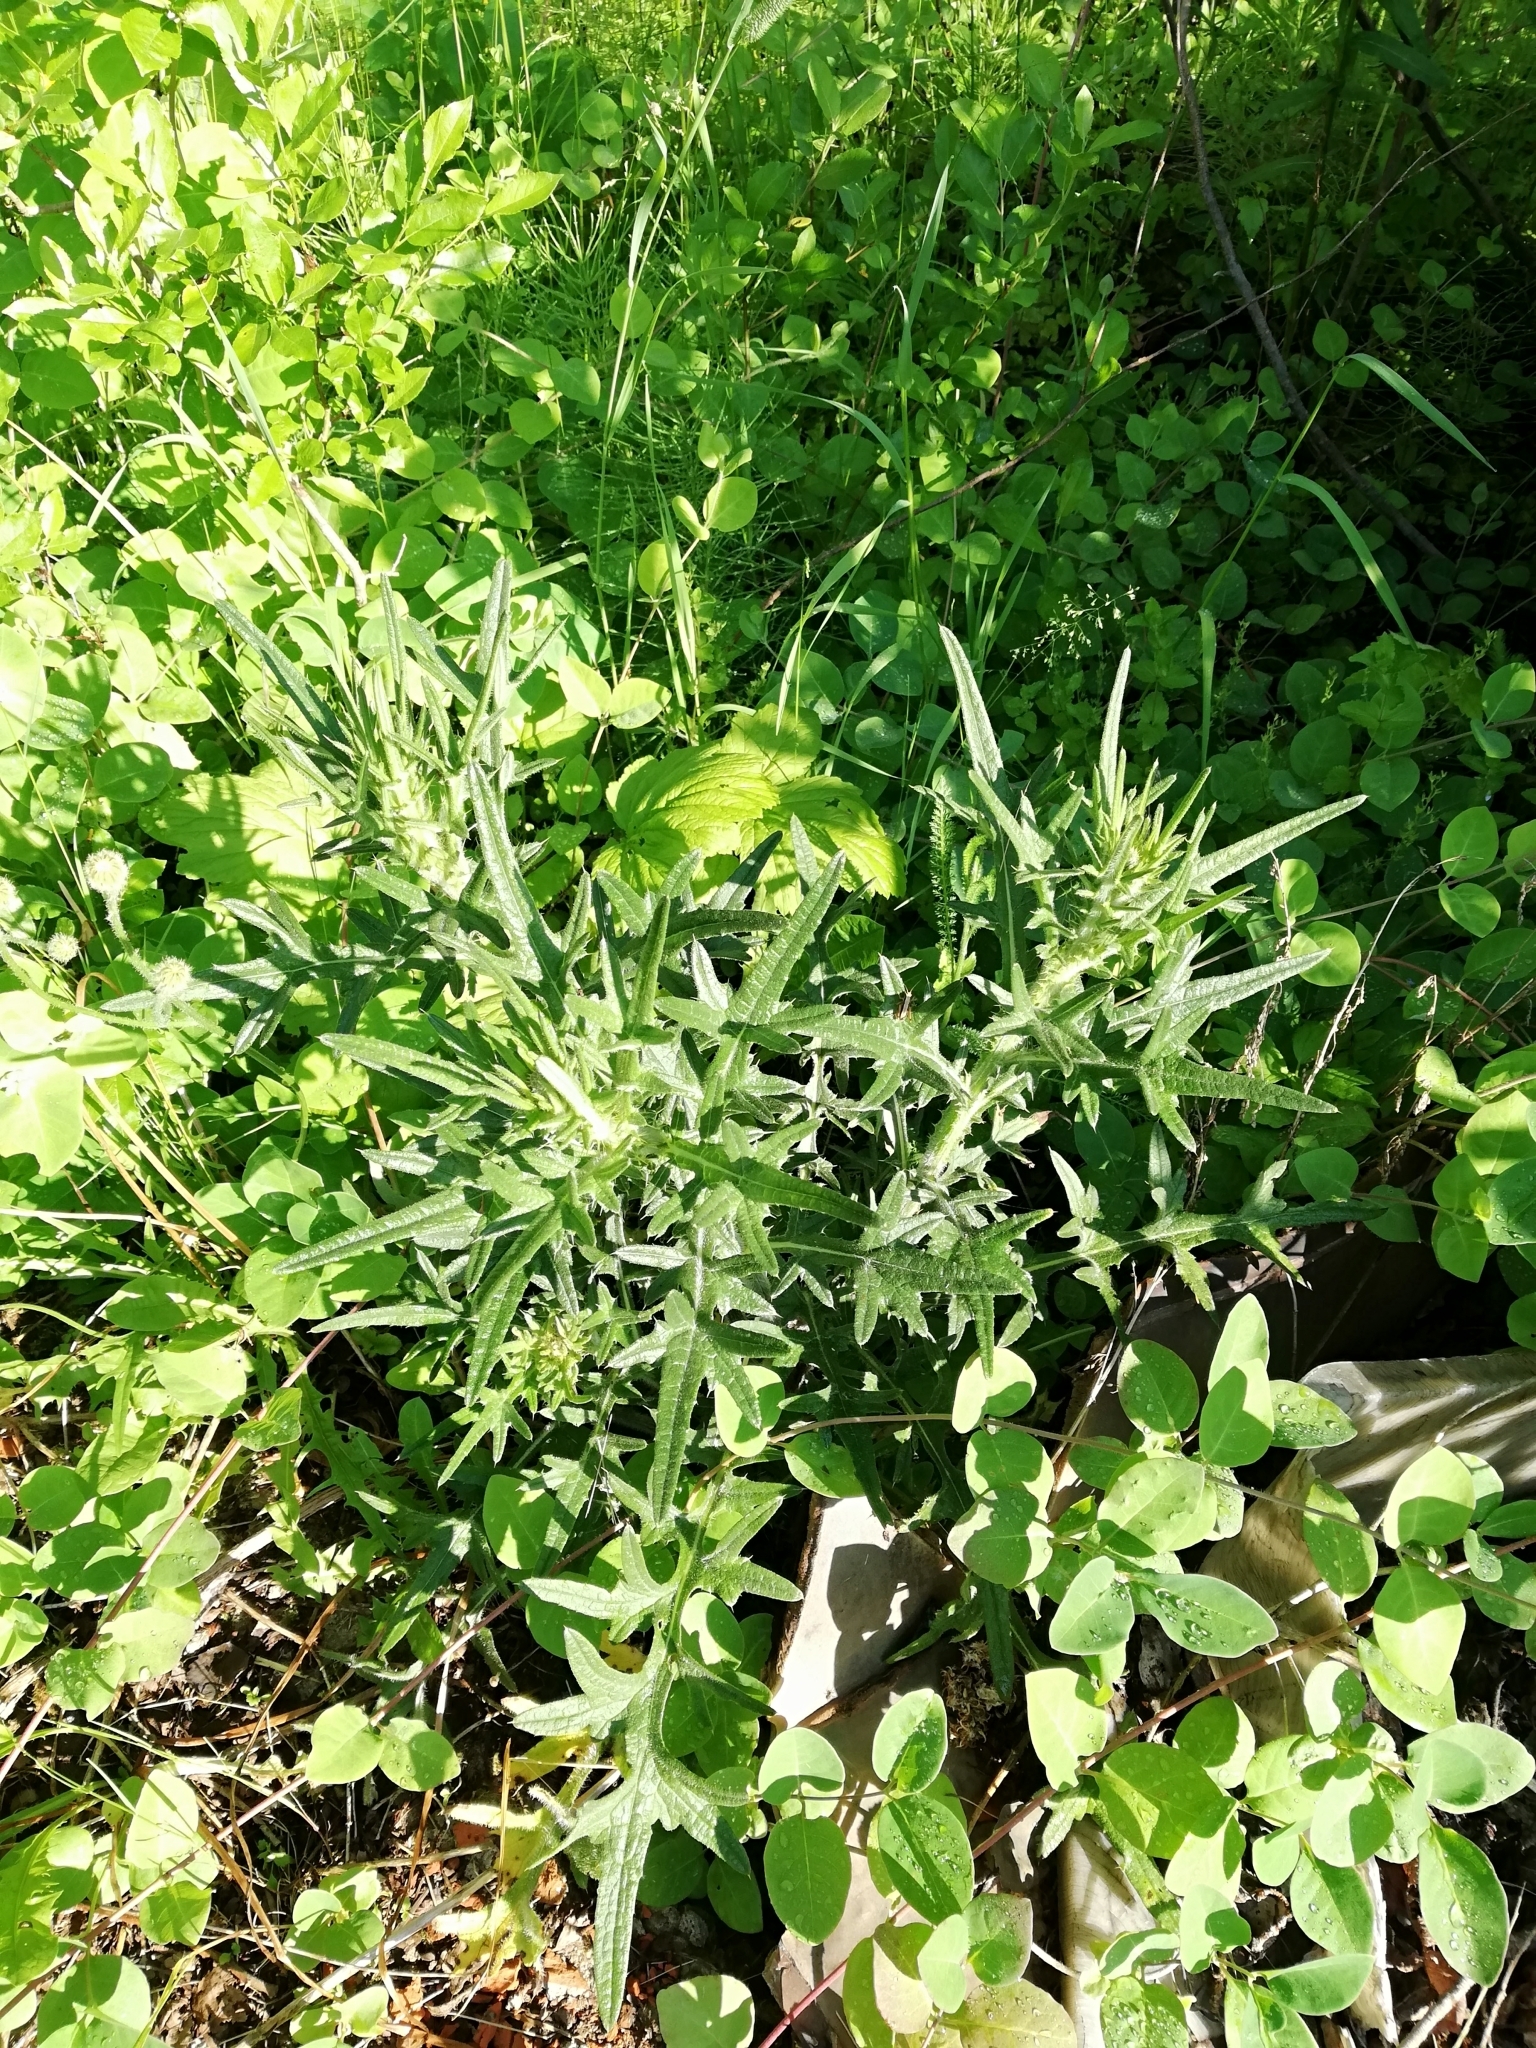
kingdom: Plantae
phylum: Tracheophyta
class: Magnoliopsida
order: Asterales
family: Asteraceae
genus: Cirsium
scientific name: Cirsium vulgare
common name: Bull thistle
